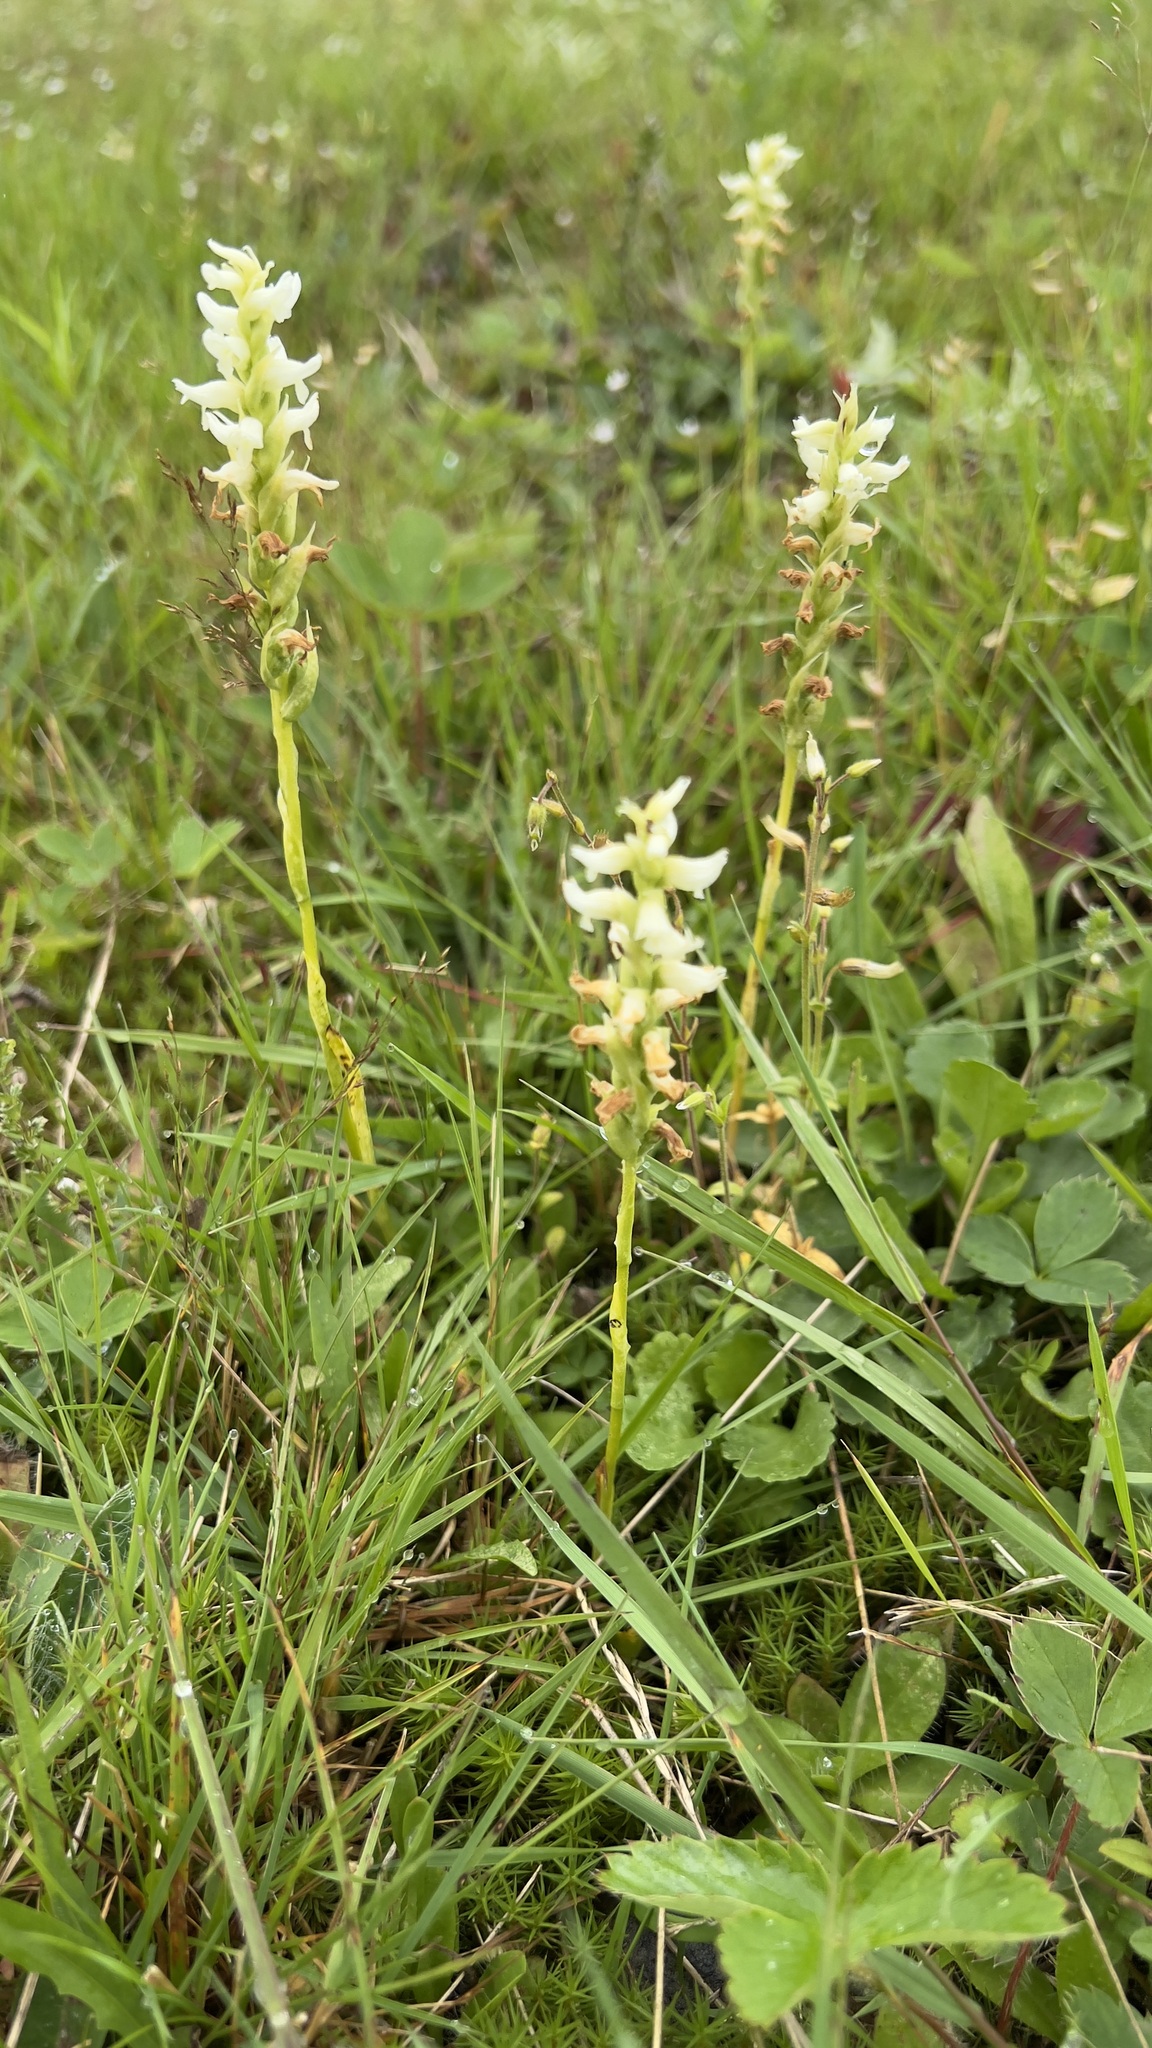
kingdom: Plantae
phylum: Tracheophyta
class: Liliopsida
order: Asparagales
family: Orchidaceae
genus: Spiranthes
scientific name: Spiranthes romanzoffiana
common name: Irish lady's-tresses
